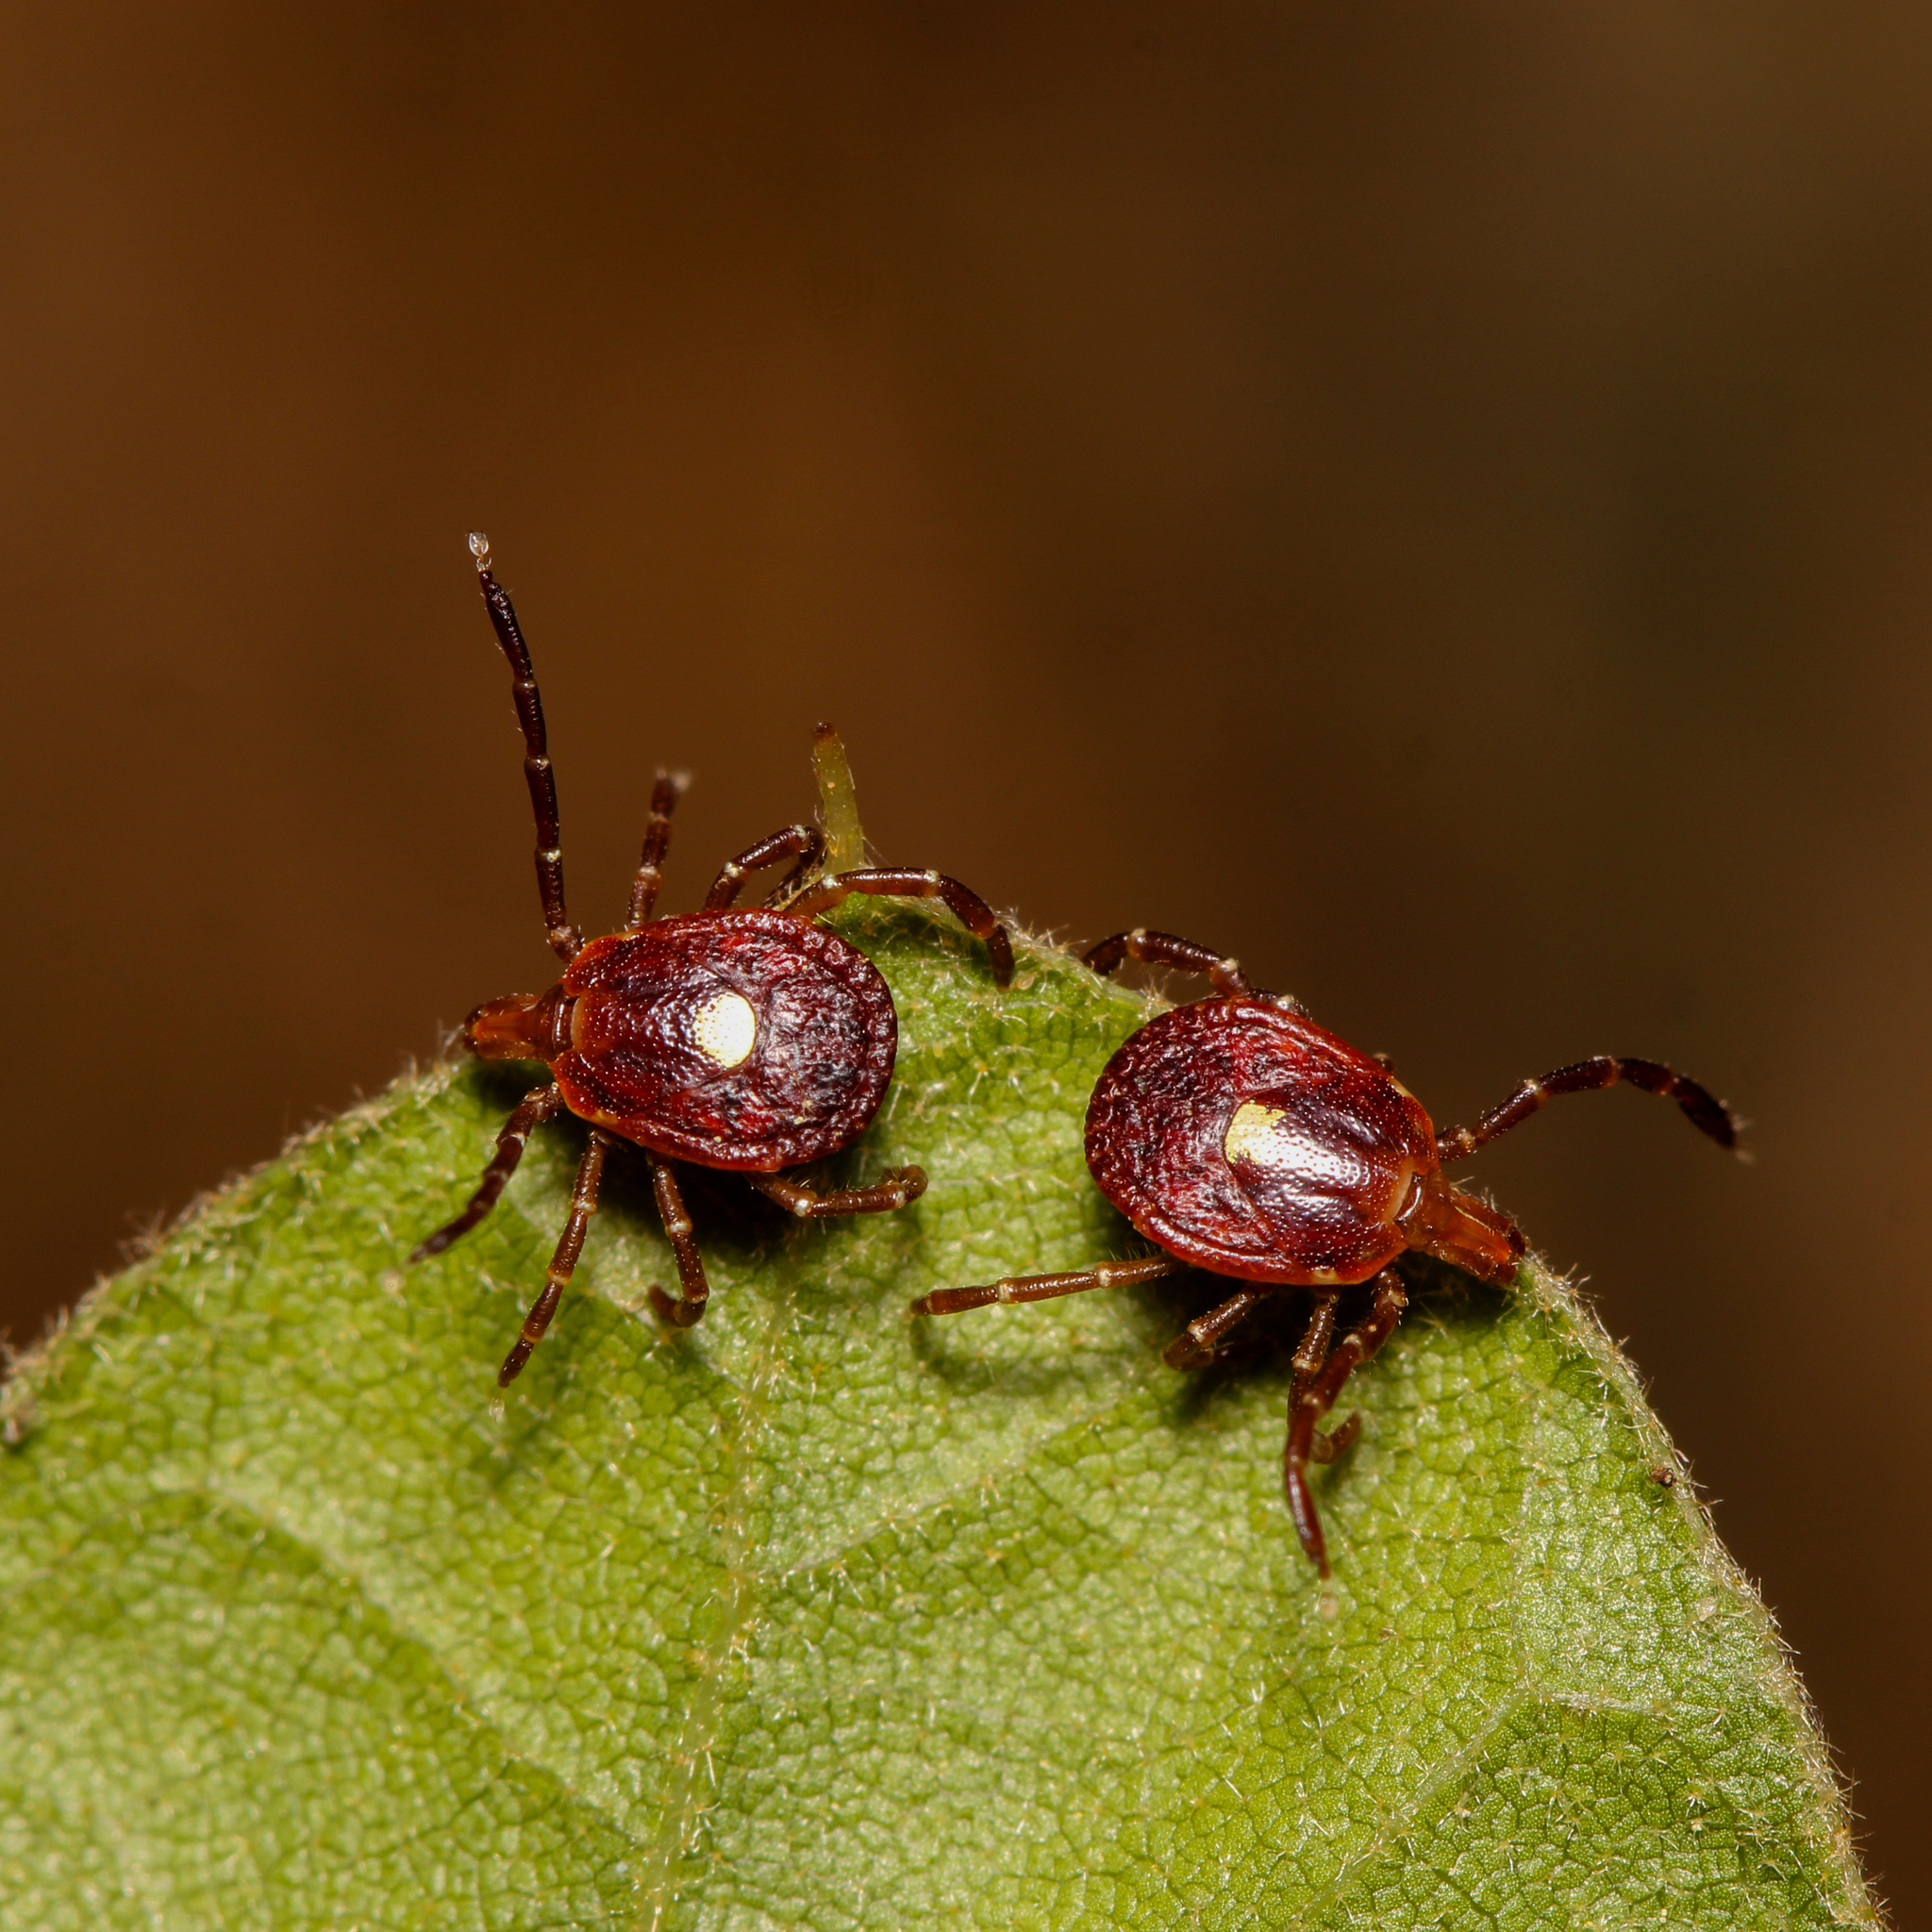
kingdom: Animalia
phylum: Arthropoda
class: Arachnida
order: Ixodida
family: Ixodidae
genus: Amblyomma
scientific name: Amblyomma americanum
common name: Lone star tick
